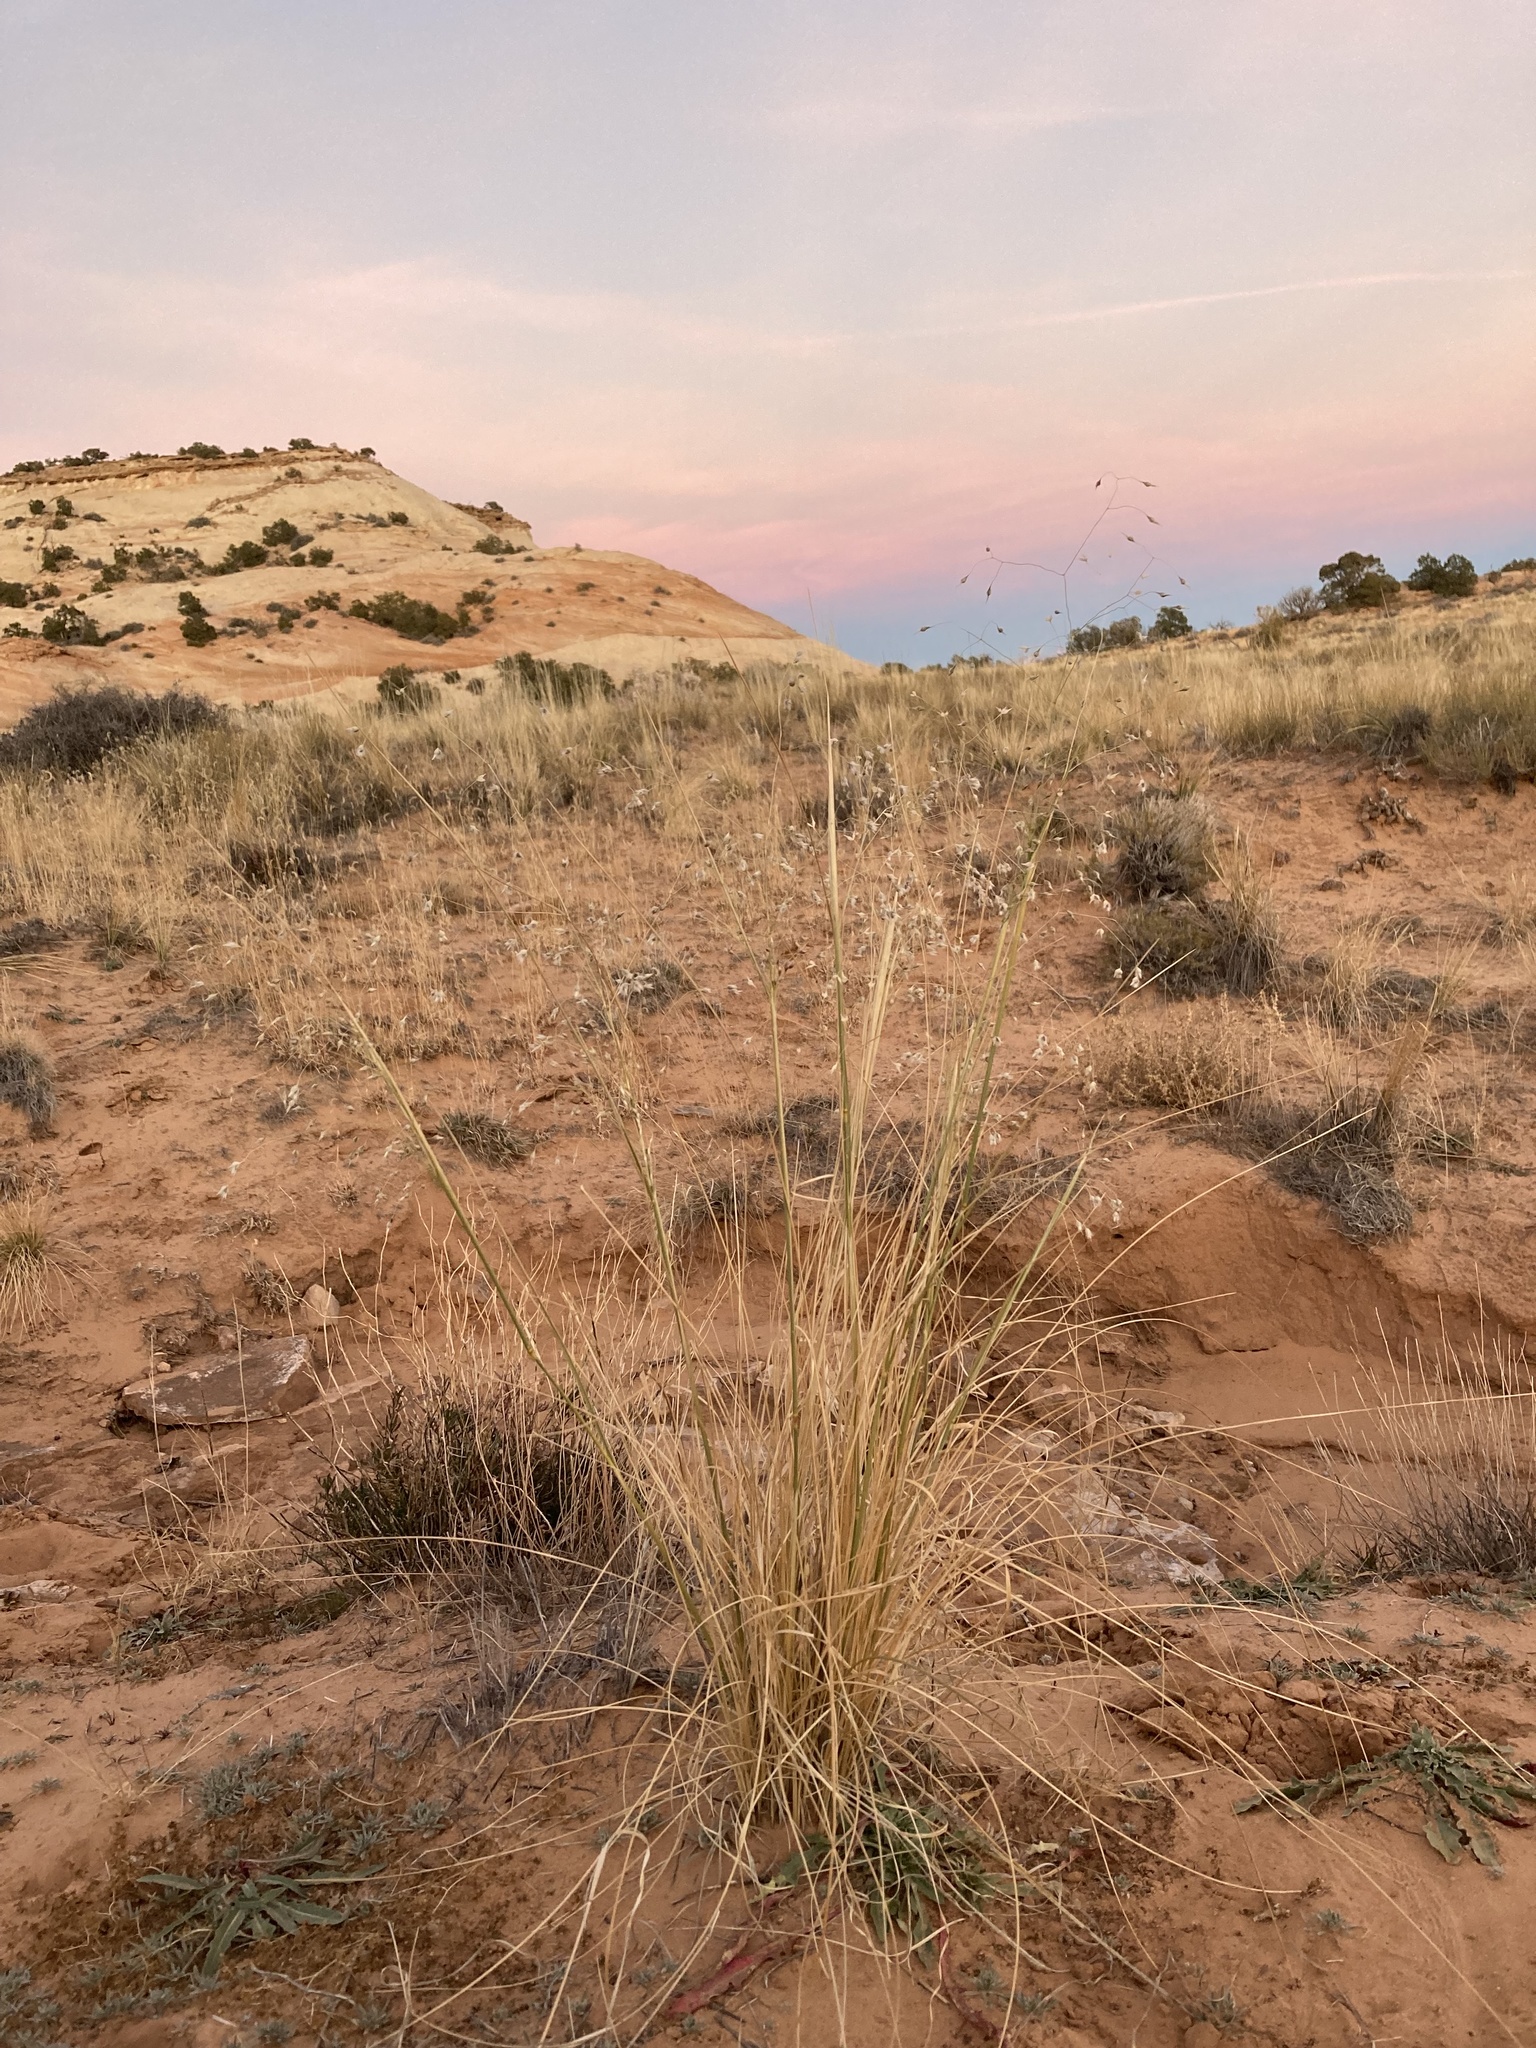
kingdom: Plantae
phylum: Tracheophyta
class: Liliopsida
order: Poales
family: Poaceae
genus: Eriocoma
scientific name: Eriocoma hymenoides
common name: Indian mountain ricegrass
